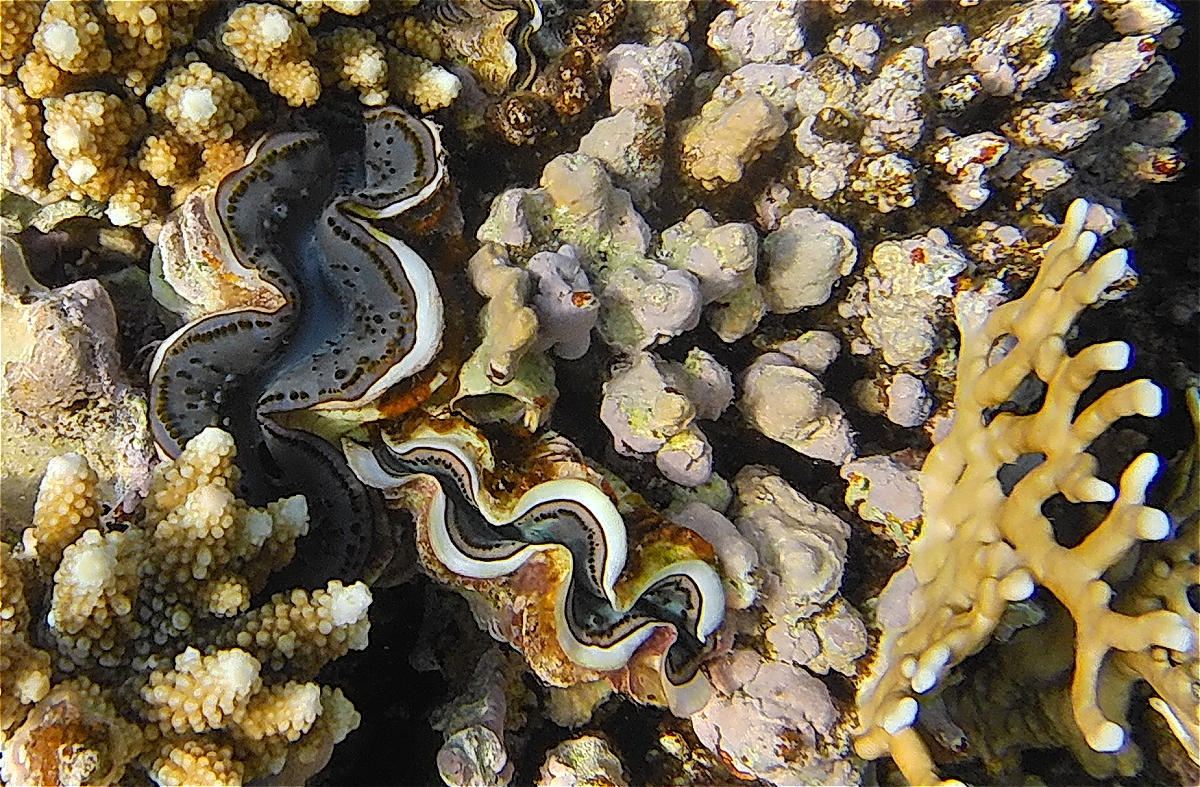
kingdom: Animalia
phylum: Mollusca
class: Bivalvia
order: Cardiida
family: Cardiidae
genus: Tridacna
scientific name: Tridacna maxima
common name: Small giant clam
